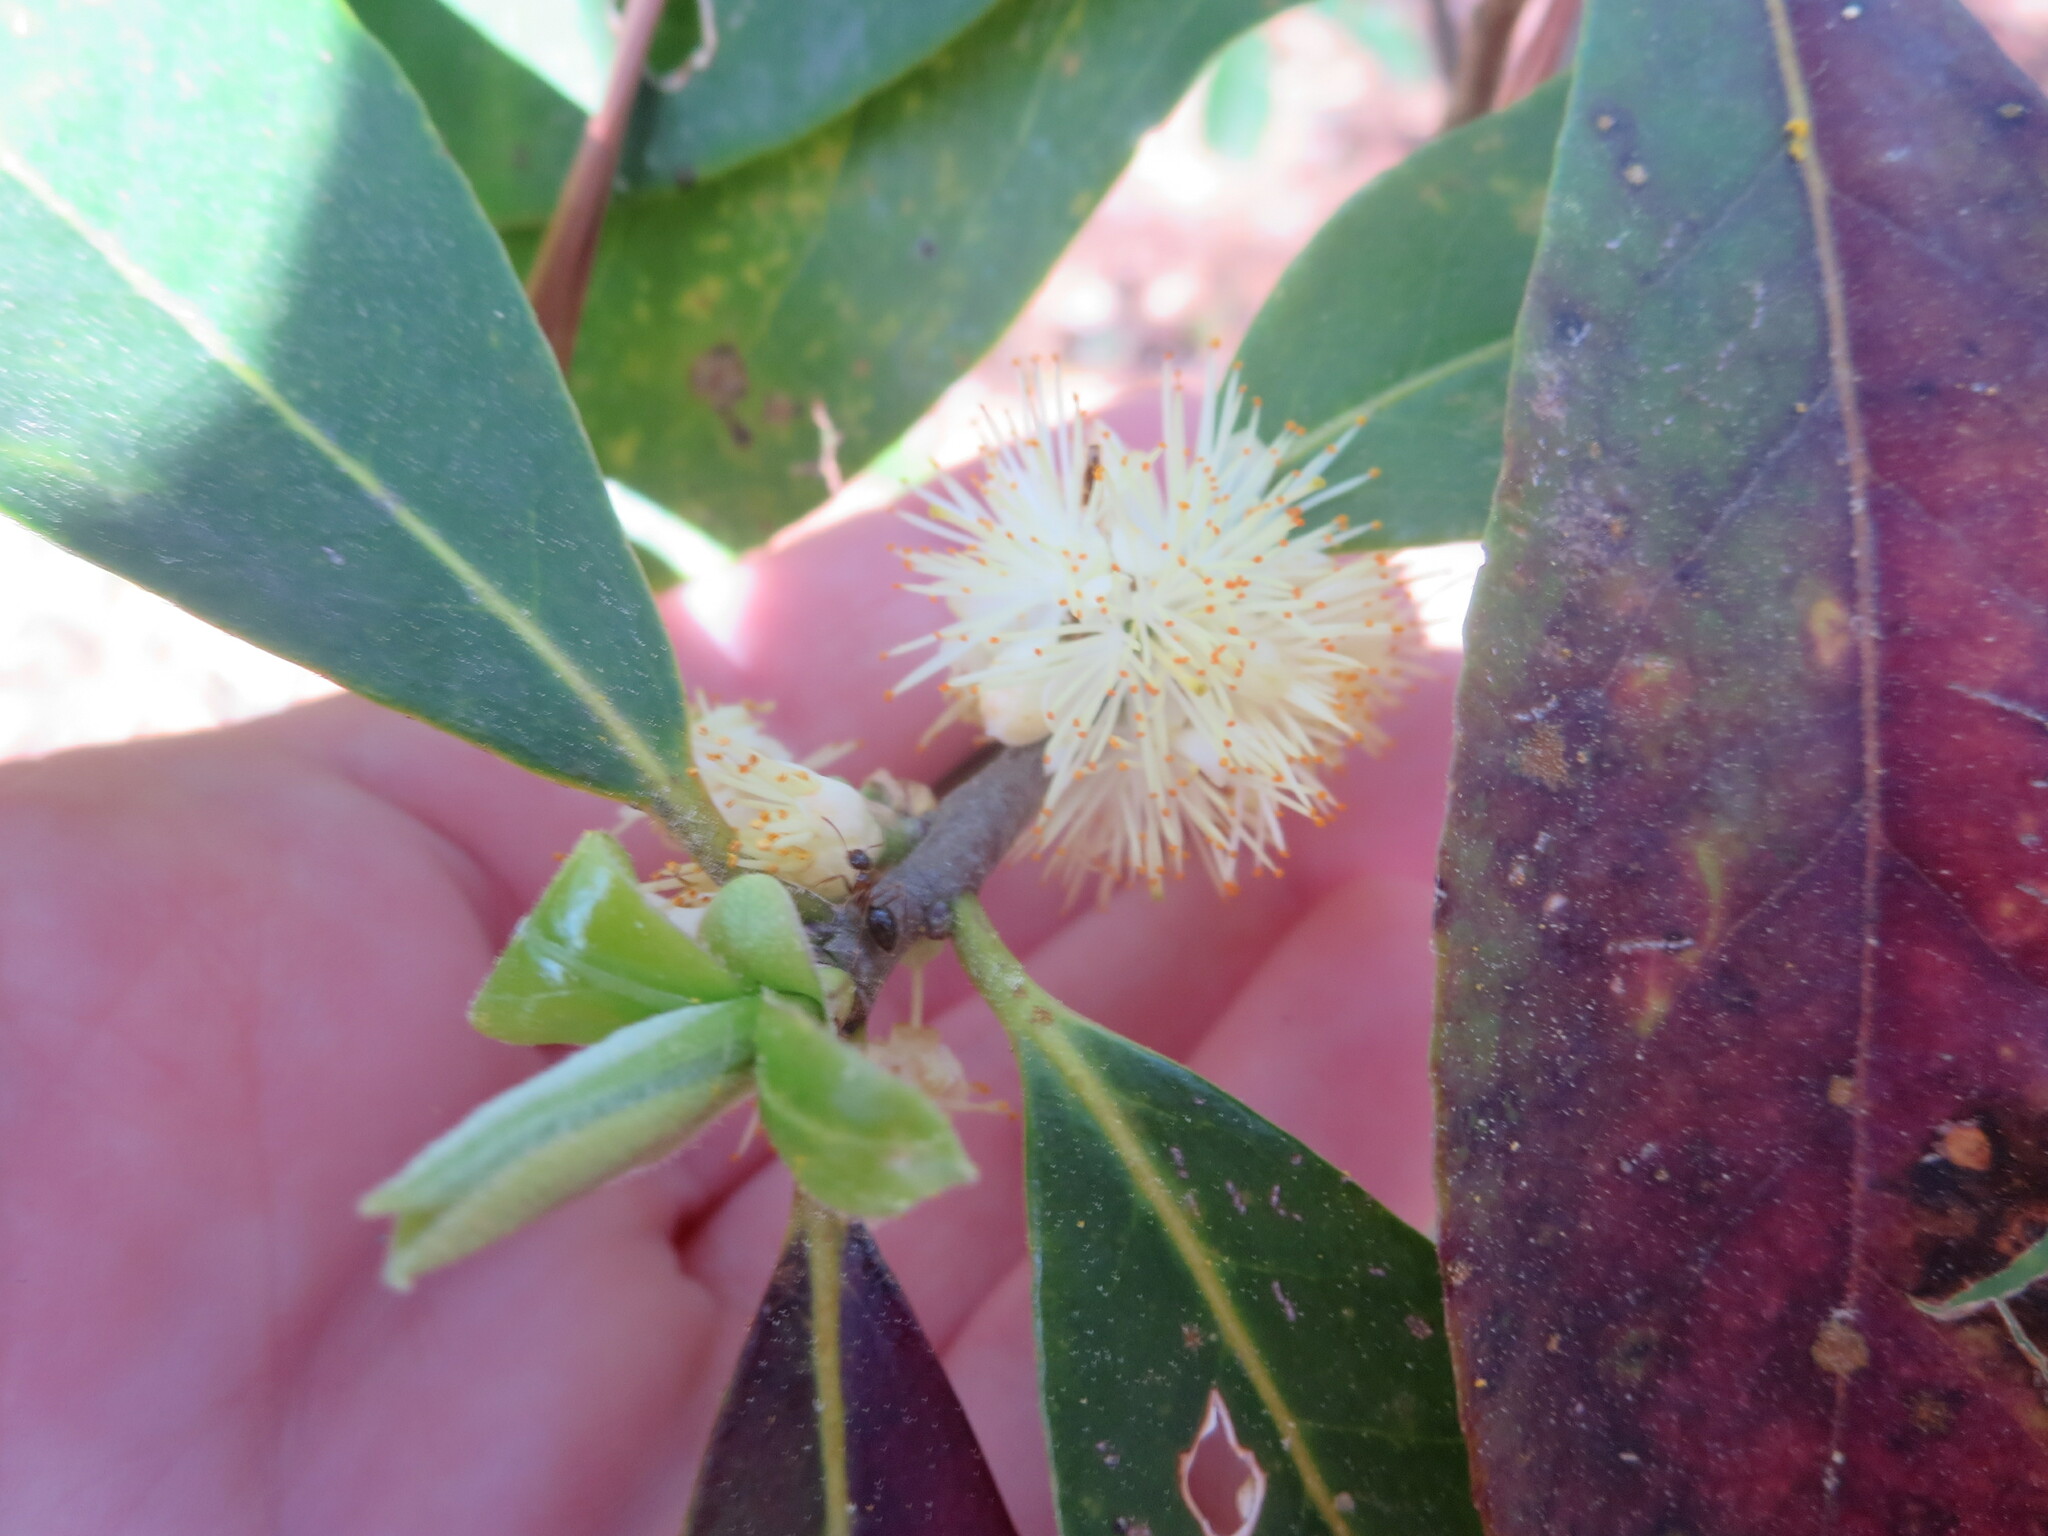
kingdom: Animalia
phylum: Arthropoda
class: Insecta
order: Hymenoptera
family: Formicidae
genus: Prenolepis
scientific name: Prenolepis imparis
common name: Small honey ant
